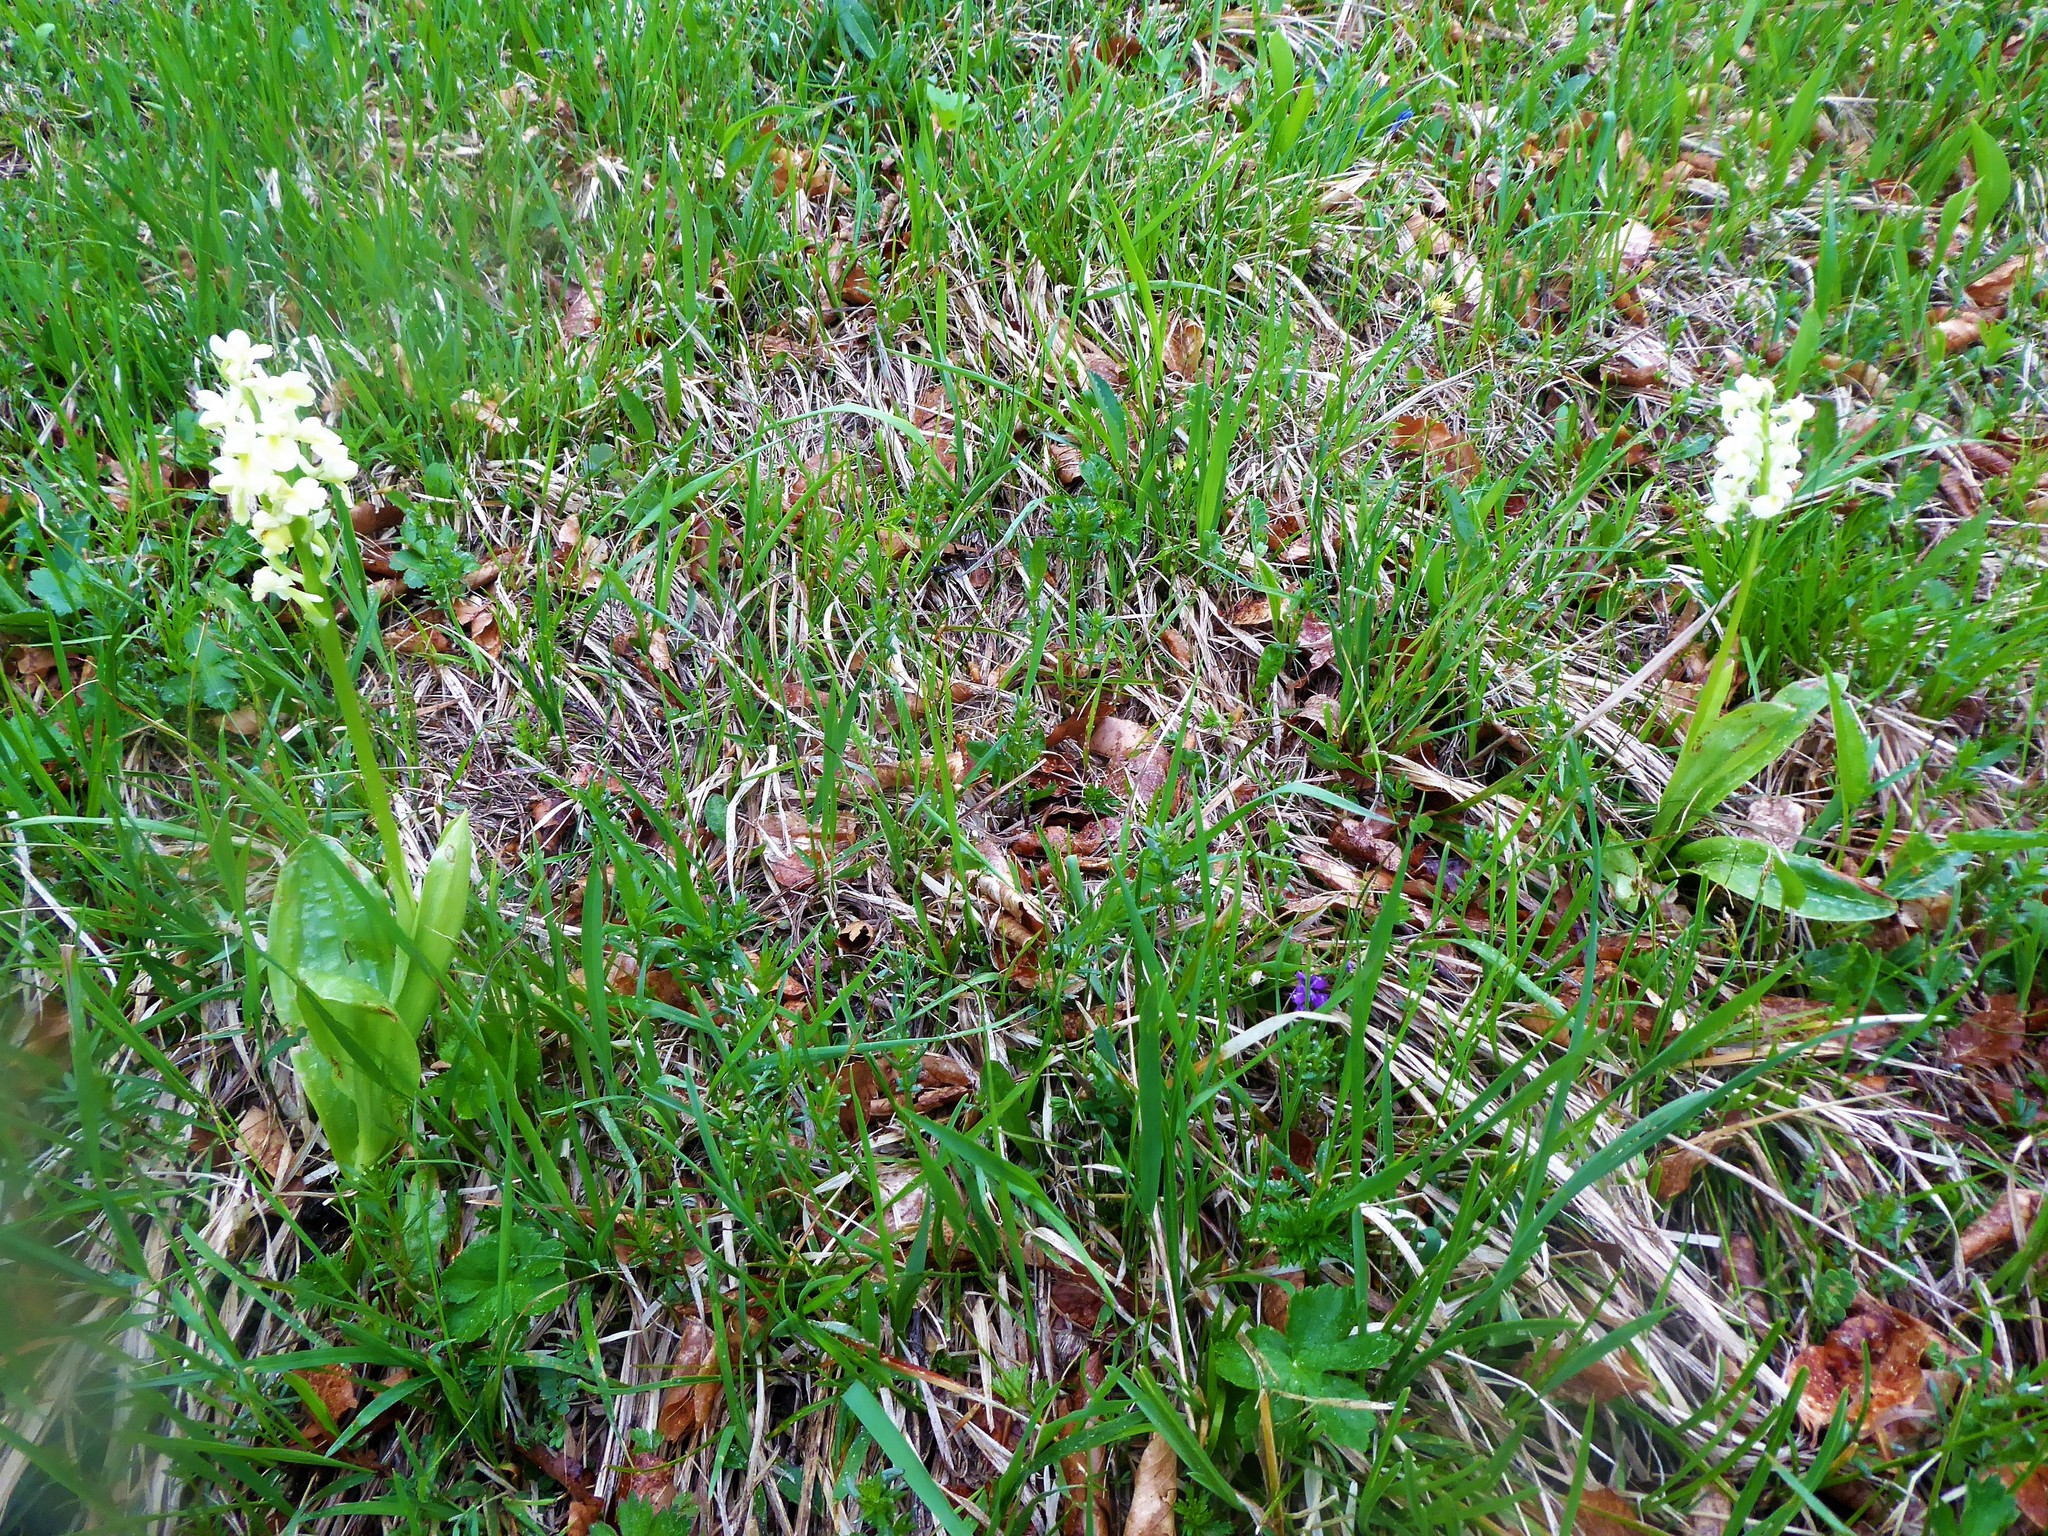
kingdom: Plantae
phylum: Tracheophyta
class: Liliopsida
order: Asparagales
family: Orchidaceae
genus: Orchis
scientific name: Orchis pallens
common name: Pale-flowered orchid
